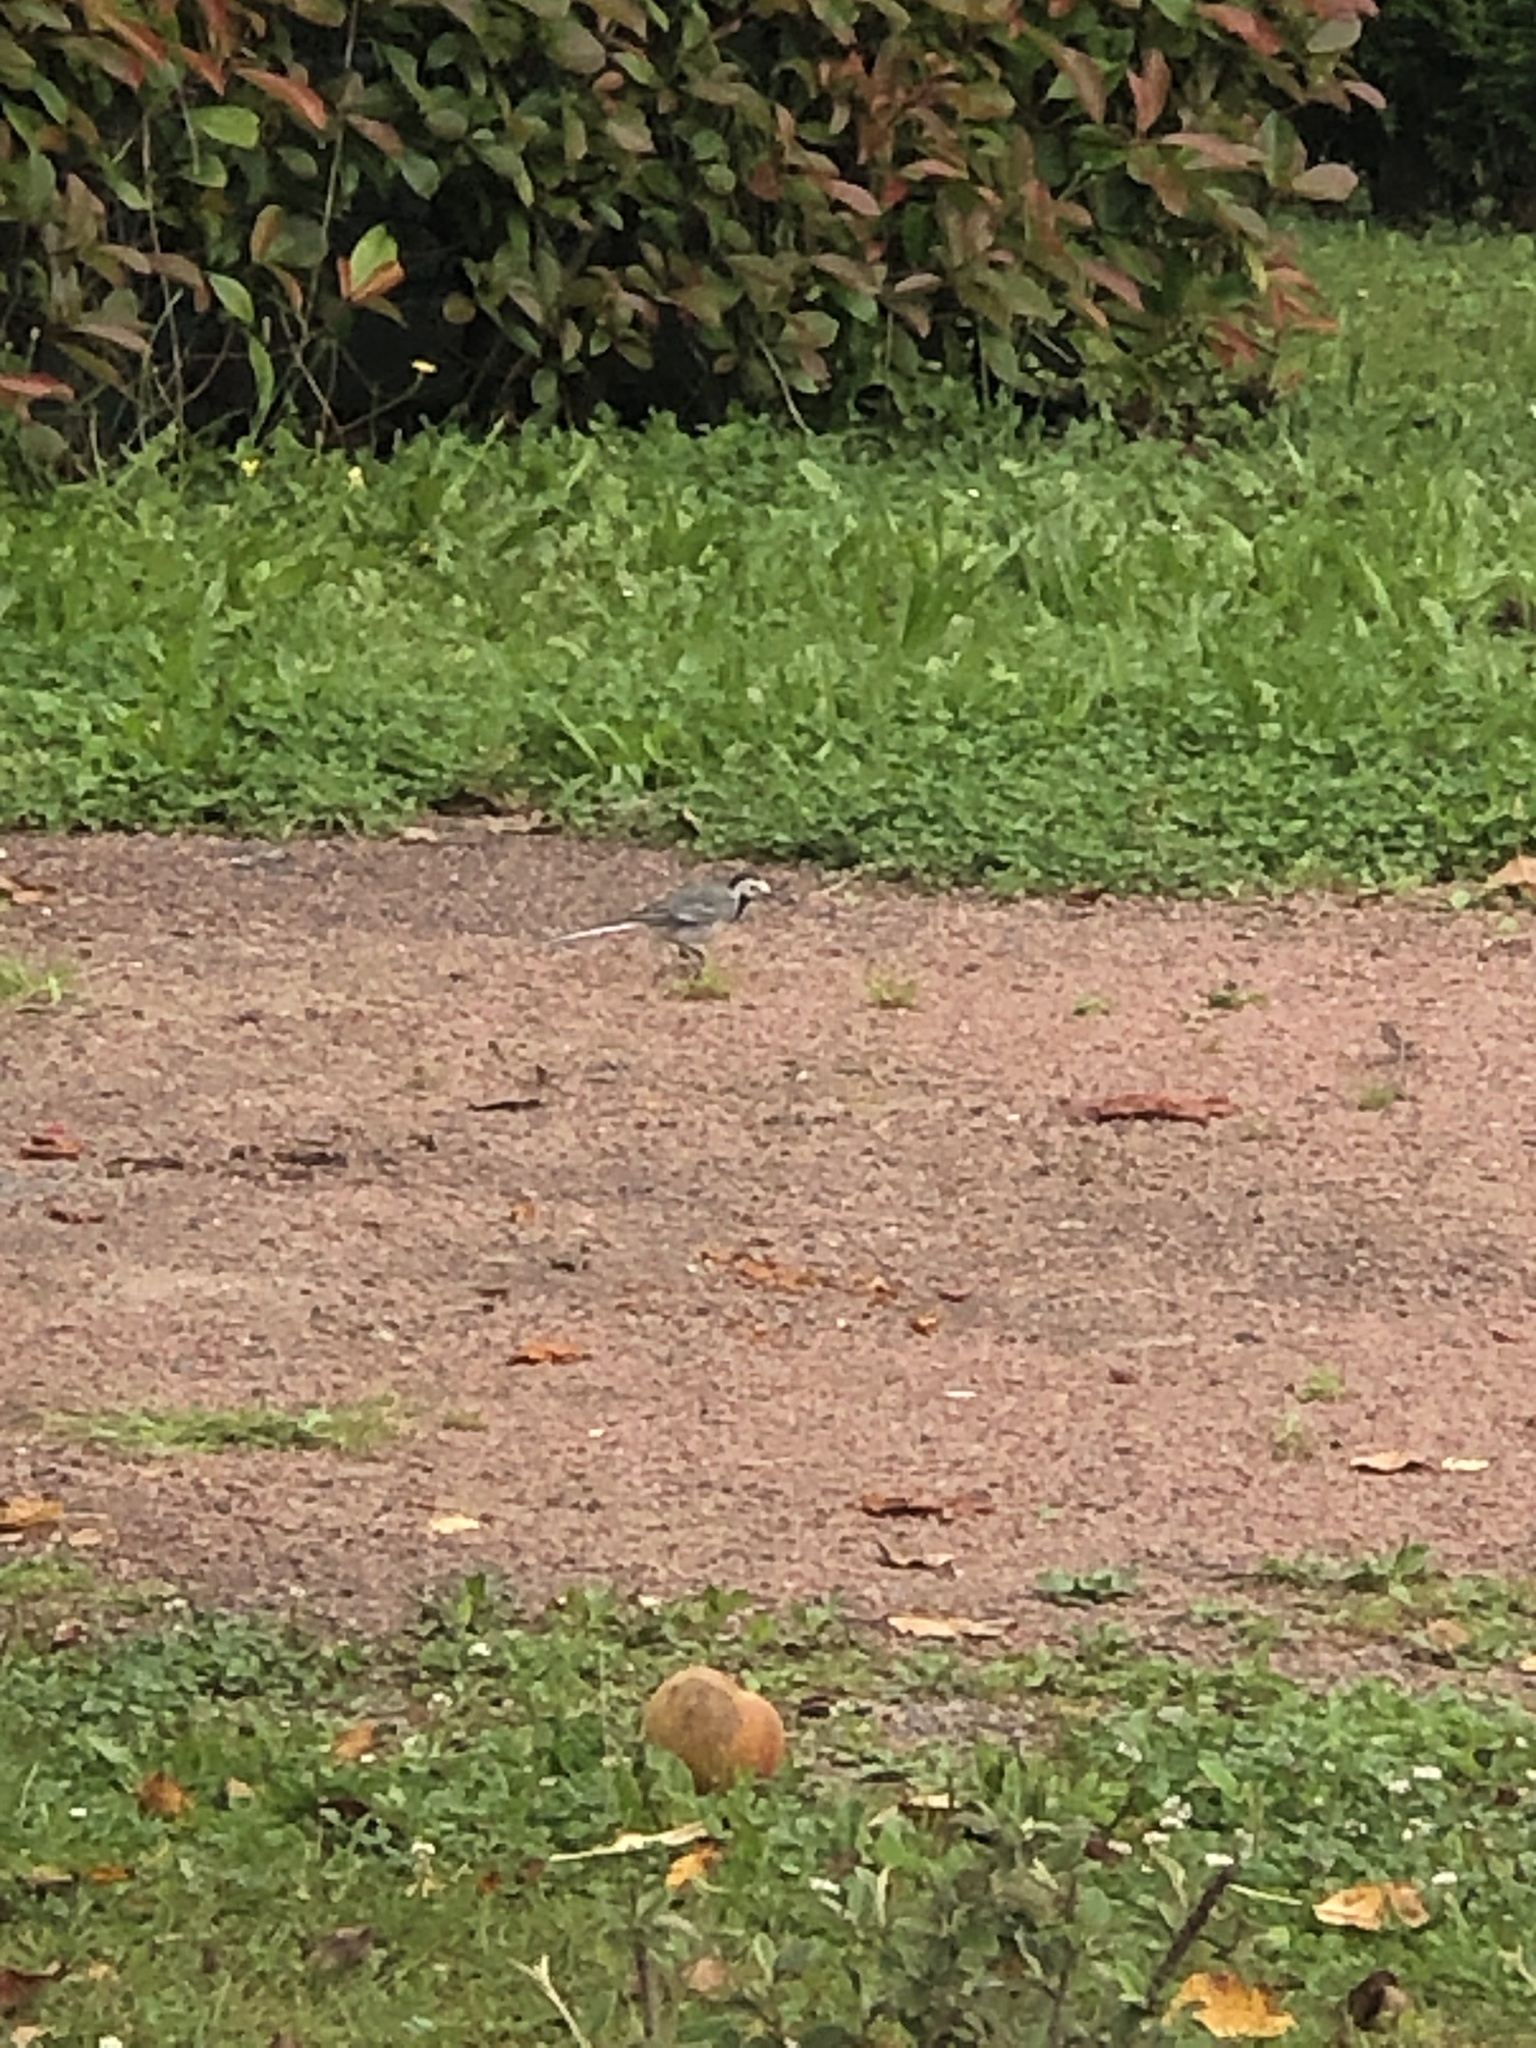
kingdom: Animalia
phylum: Chordata
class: Aves
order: Passeriformes
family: Motacillidae
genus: Motacilla
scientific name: Motacilla alba
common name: White wagtail
